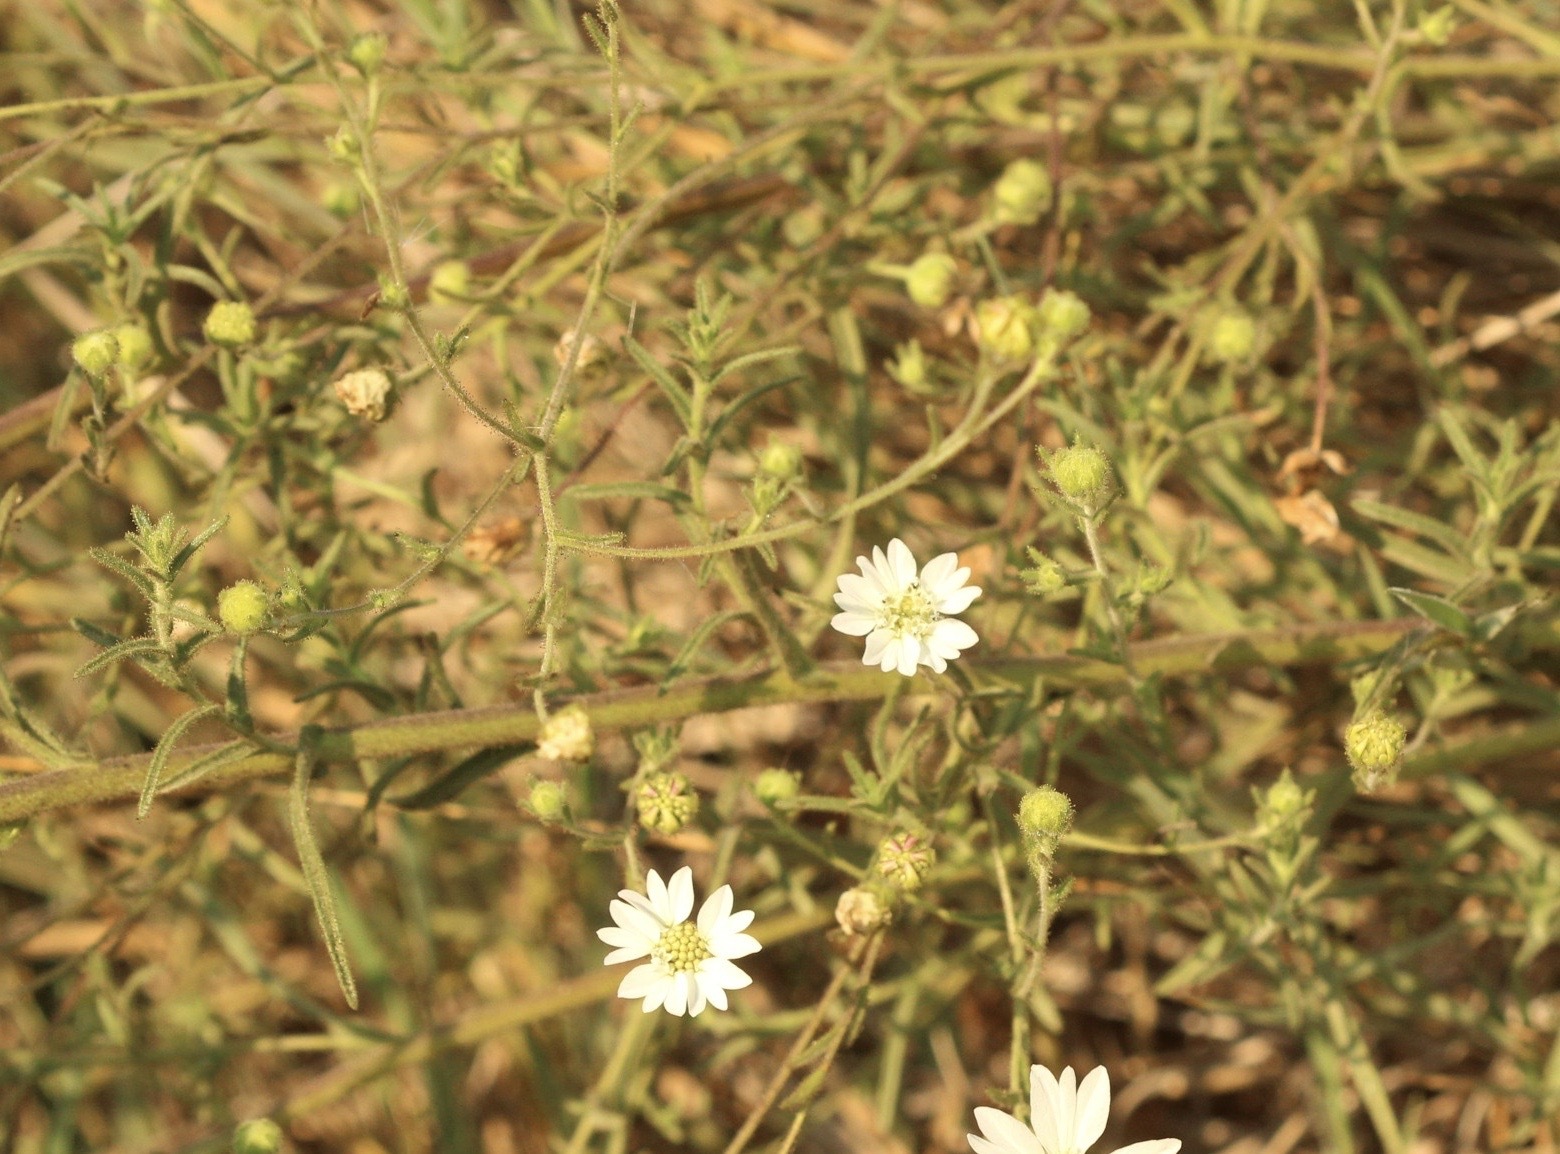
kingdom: Plantae
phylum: Tracheophyta
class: Magnoliopsida
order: Asterales
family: Asteraceae
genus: Hemizonia
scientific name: Hemizonia congesta
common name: Hayfield tarweed
